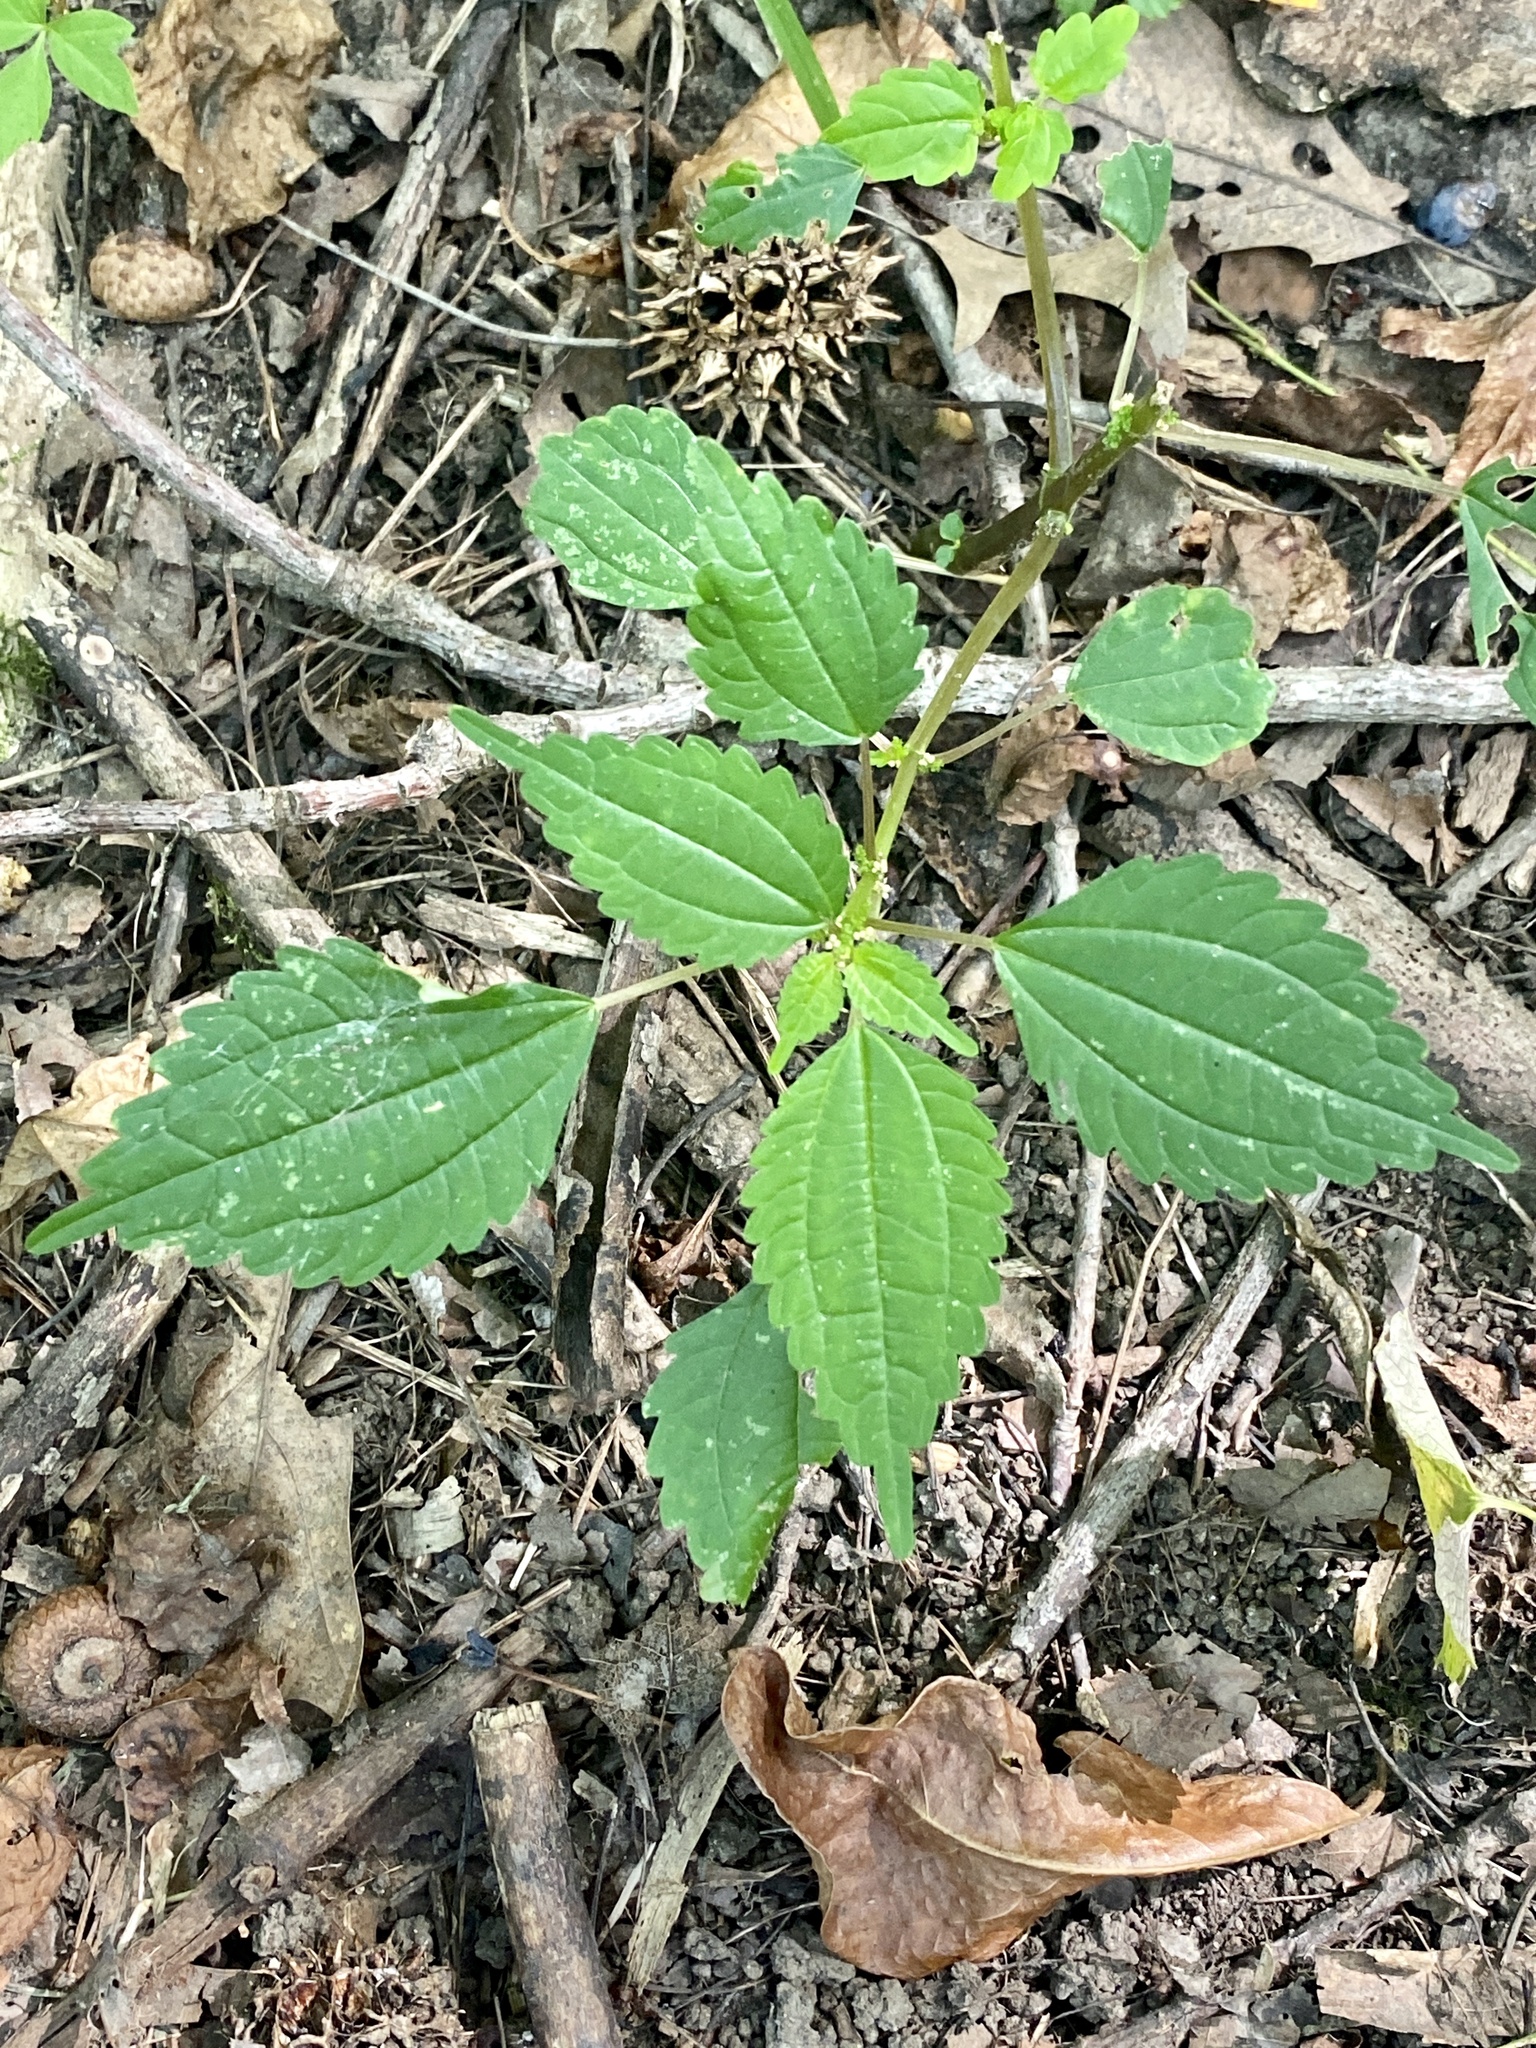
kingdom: Plantae
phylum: Tracheophyta
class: Magnoliopsida
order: Rosales
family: Urticaceae
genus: Pilea
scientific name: Pilea pumila
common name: Clearweed
